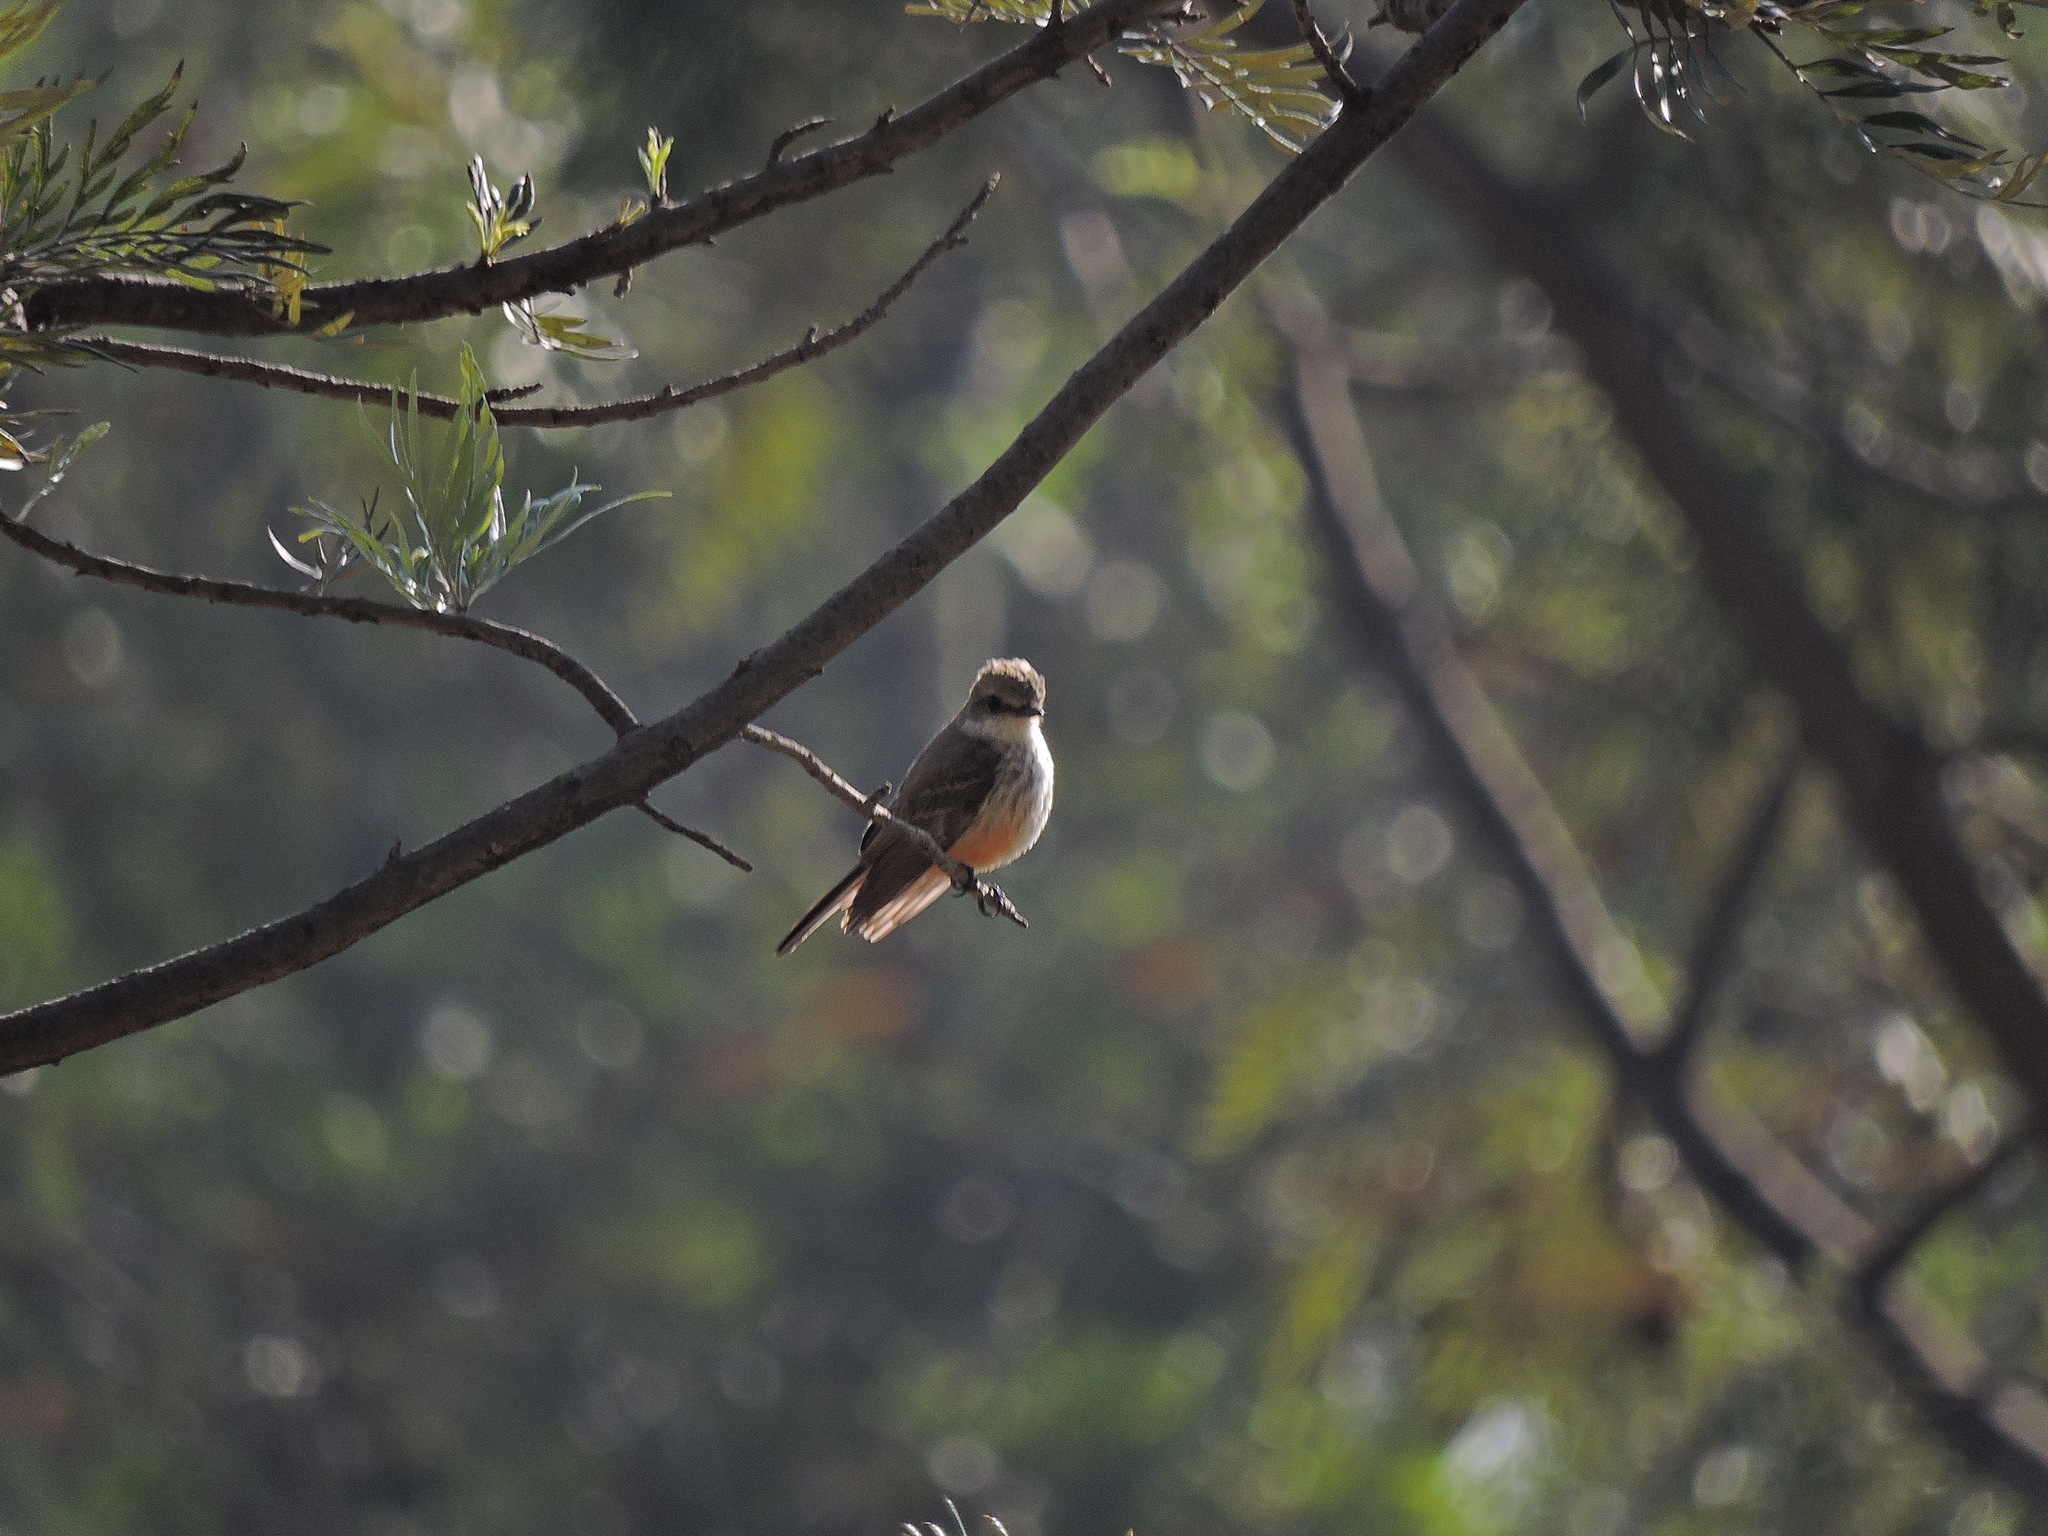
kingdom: Animalia
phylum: Chordata
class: Aves
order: Passeriformes
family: Tyrannidae
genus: Pyrocephalus
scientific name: Pyrocephalus rubinus
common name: Vermilion flycatcher
